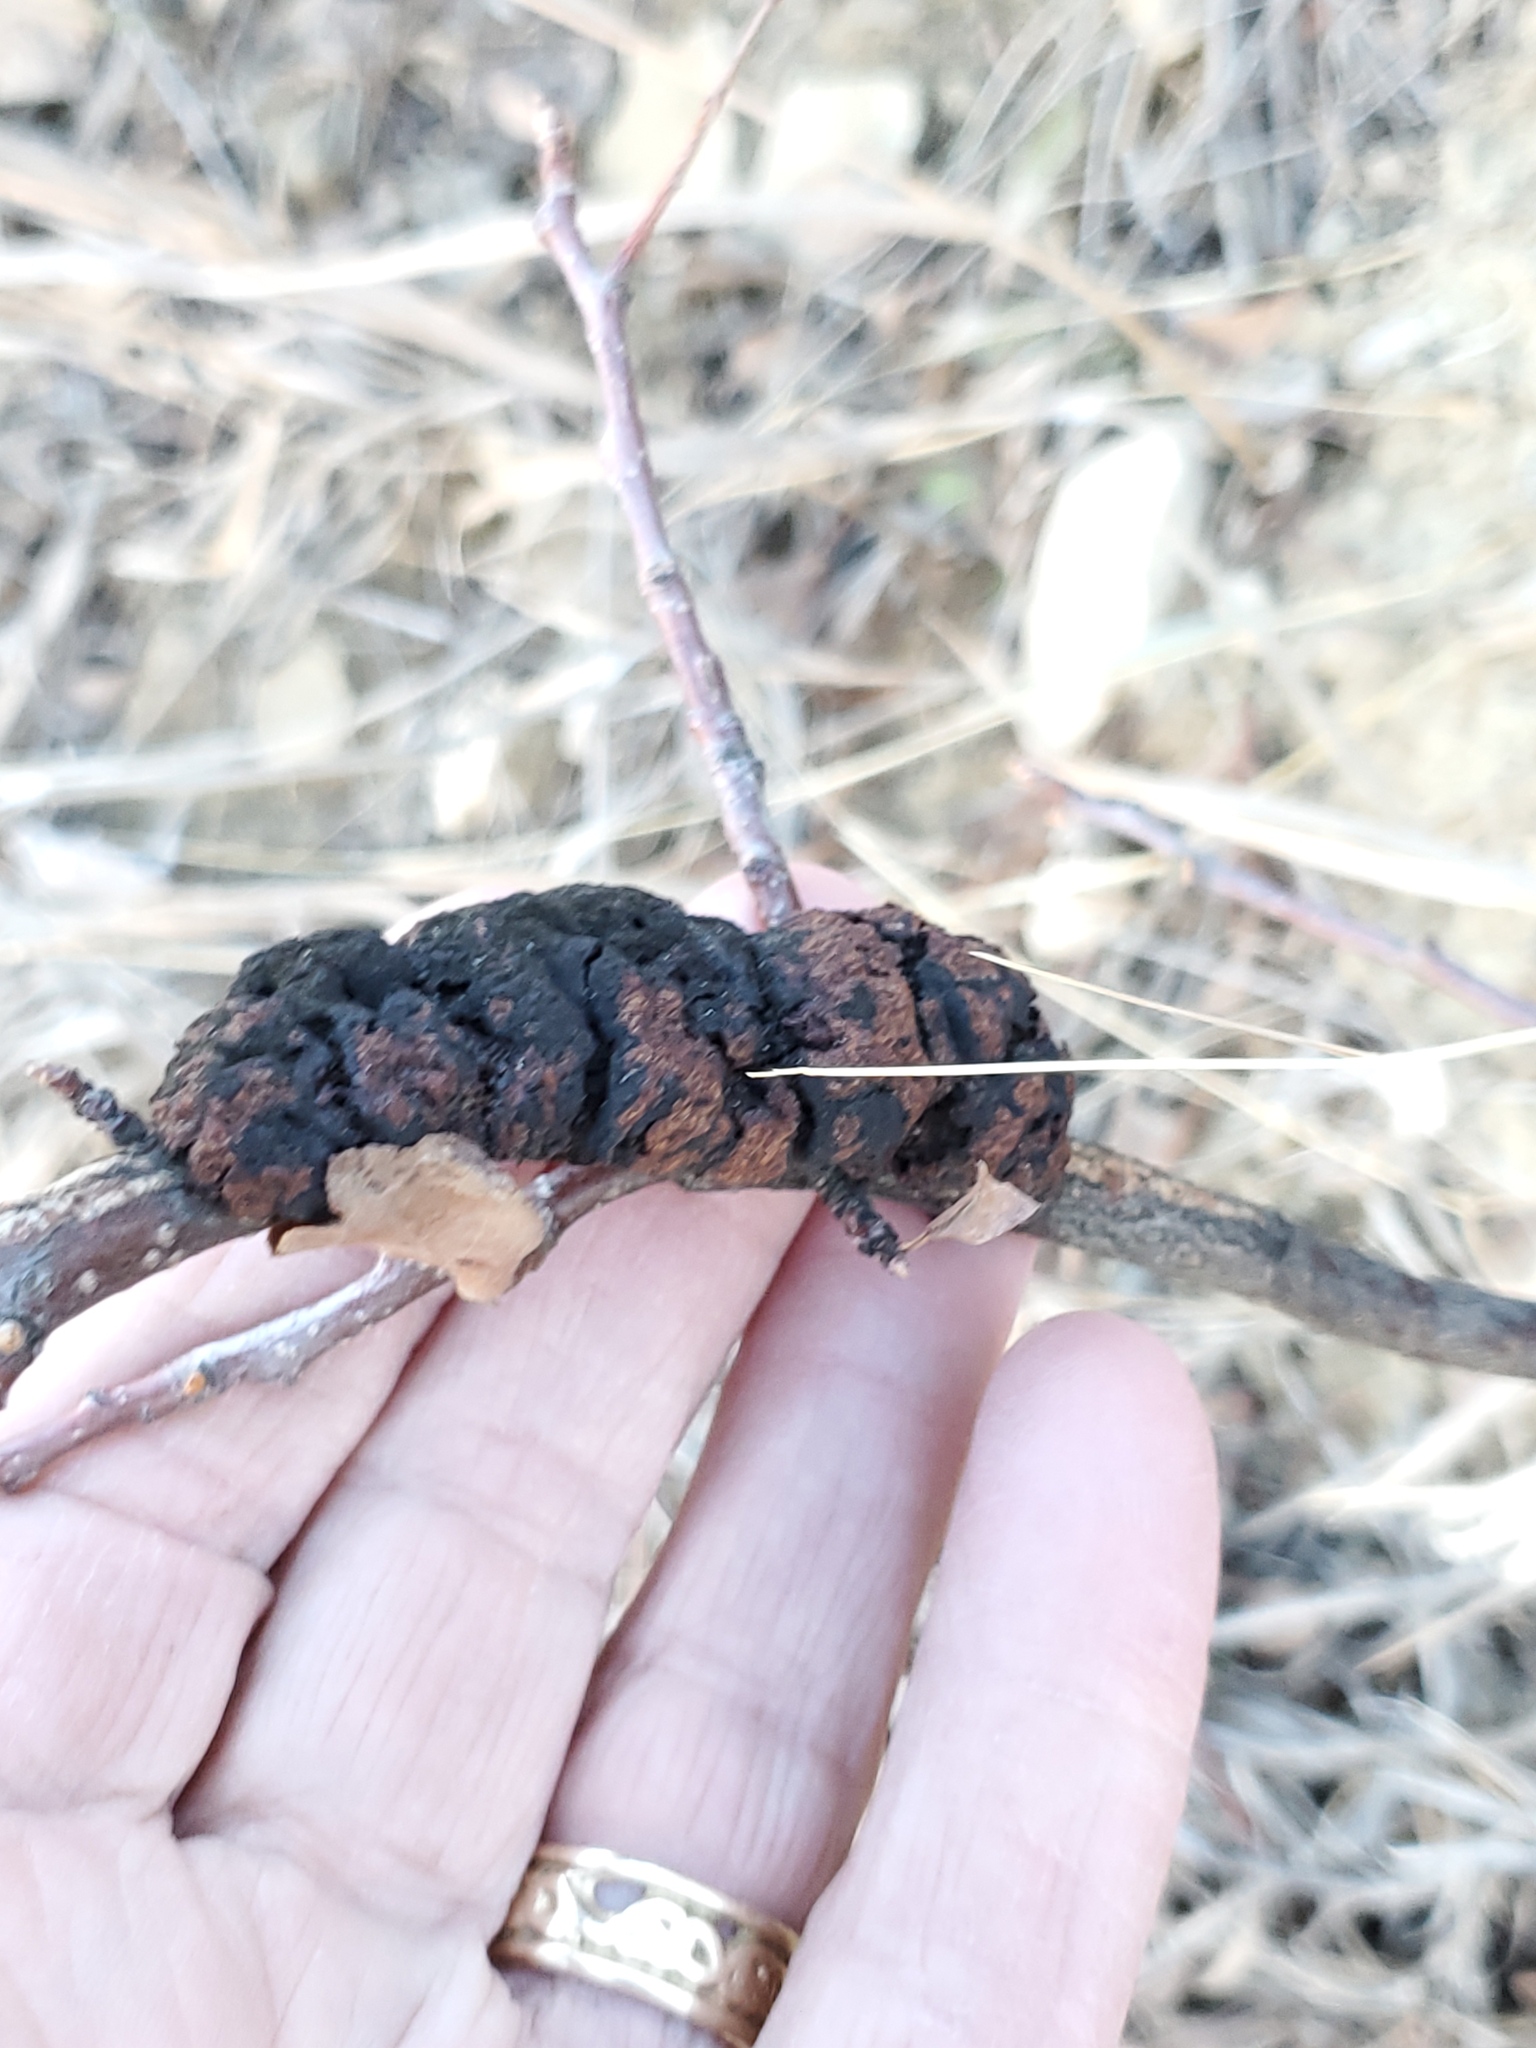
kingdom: Fungi
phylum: Ascomycota
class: Dothideomycetes
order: Venturiales
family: Venturiaceae
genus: Apiosporina
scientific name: Apiosporina morbosa
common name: Black knot
